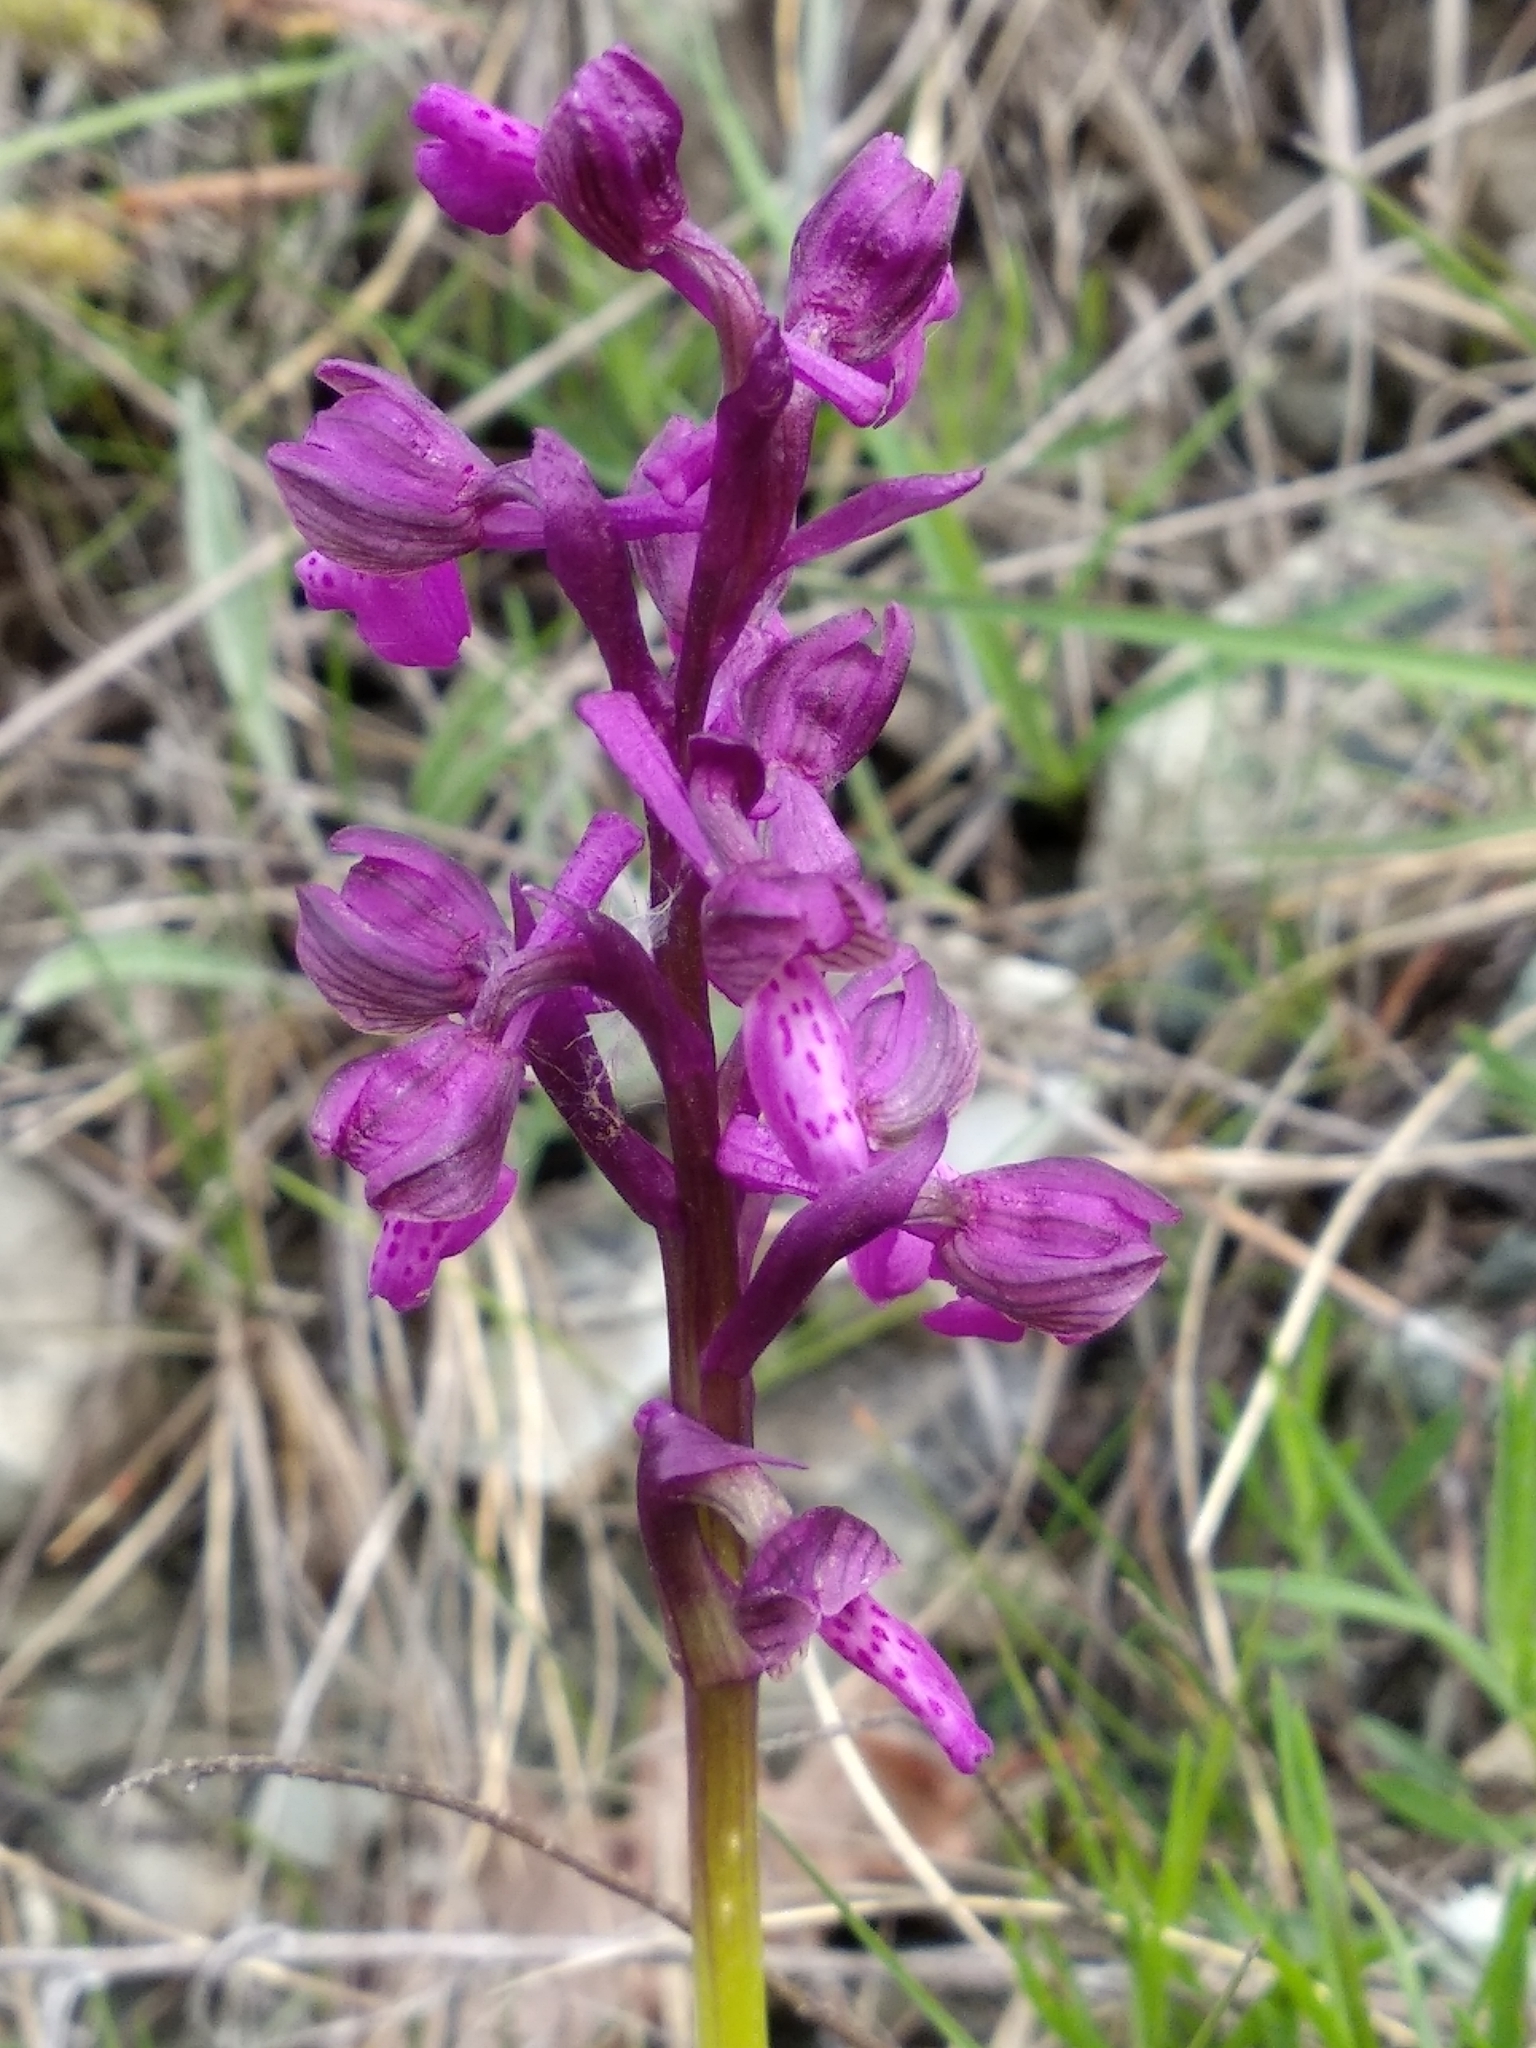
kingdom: Plantae
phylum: Tracheophyta
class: Liliopsida
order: Asparagales
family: Orchidaceae
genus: Anacamptis
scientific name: Anacamptis morio
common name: Green-winged orchid
